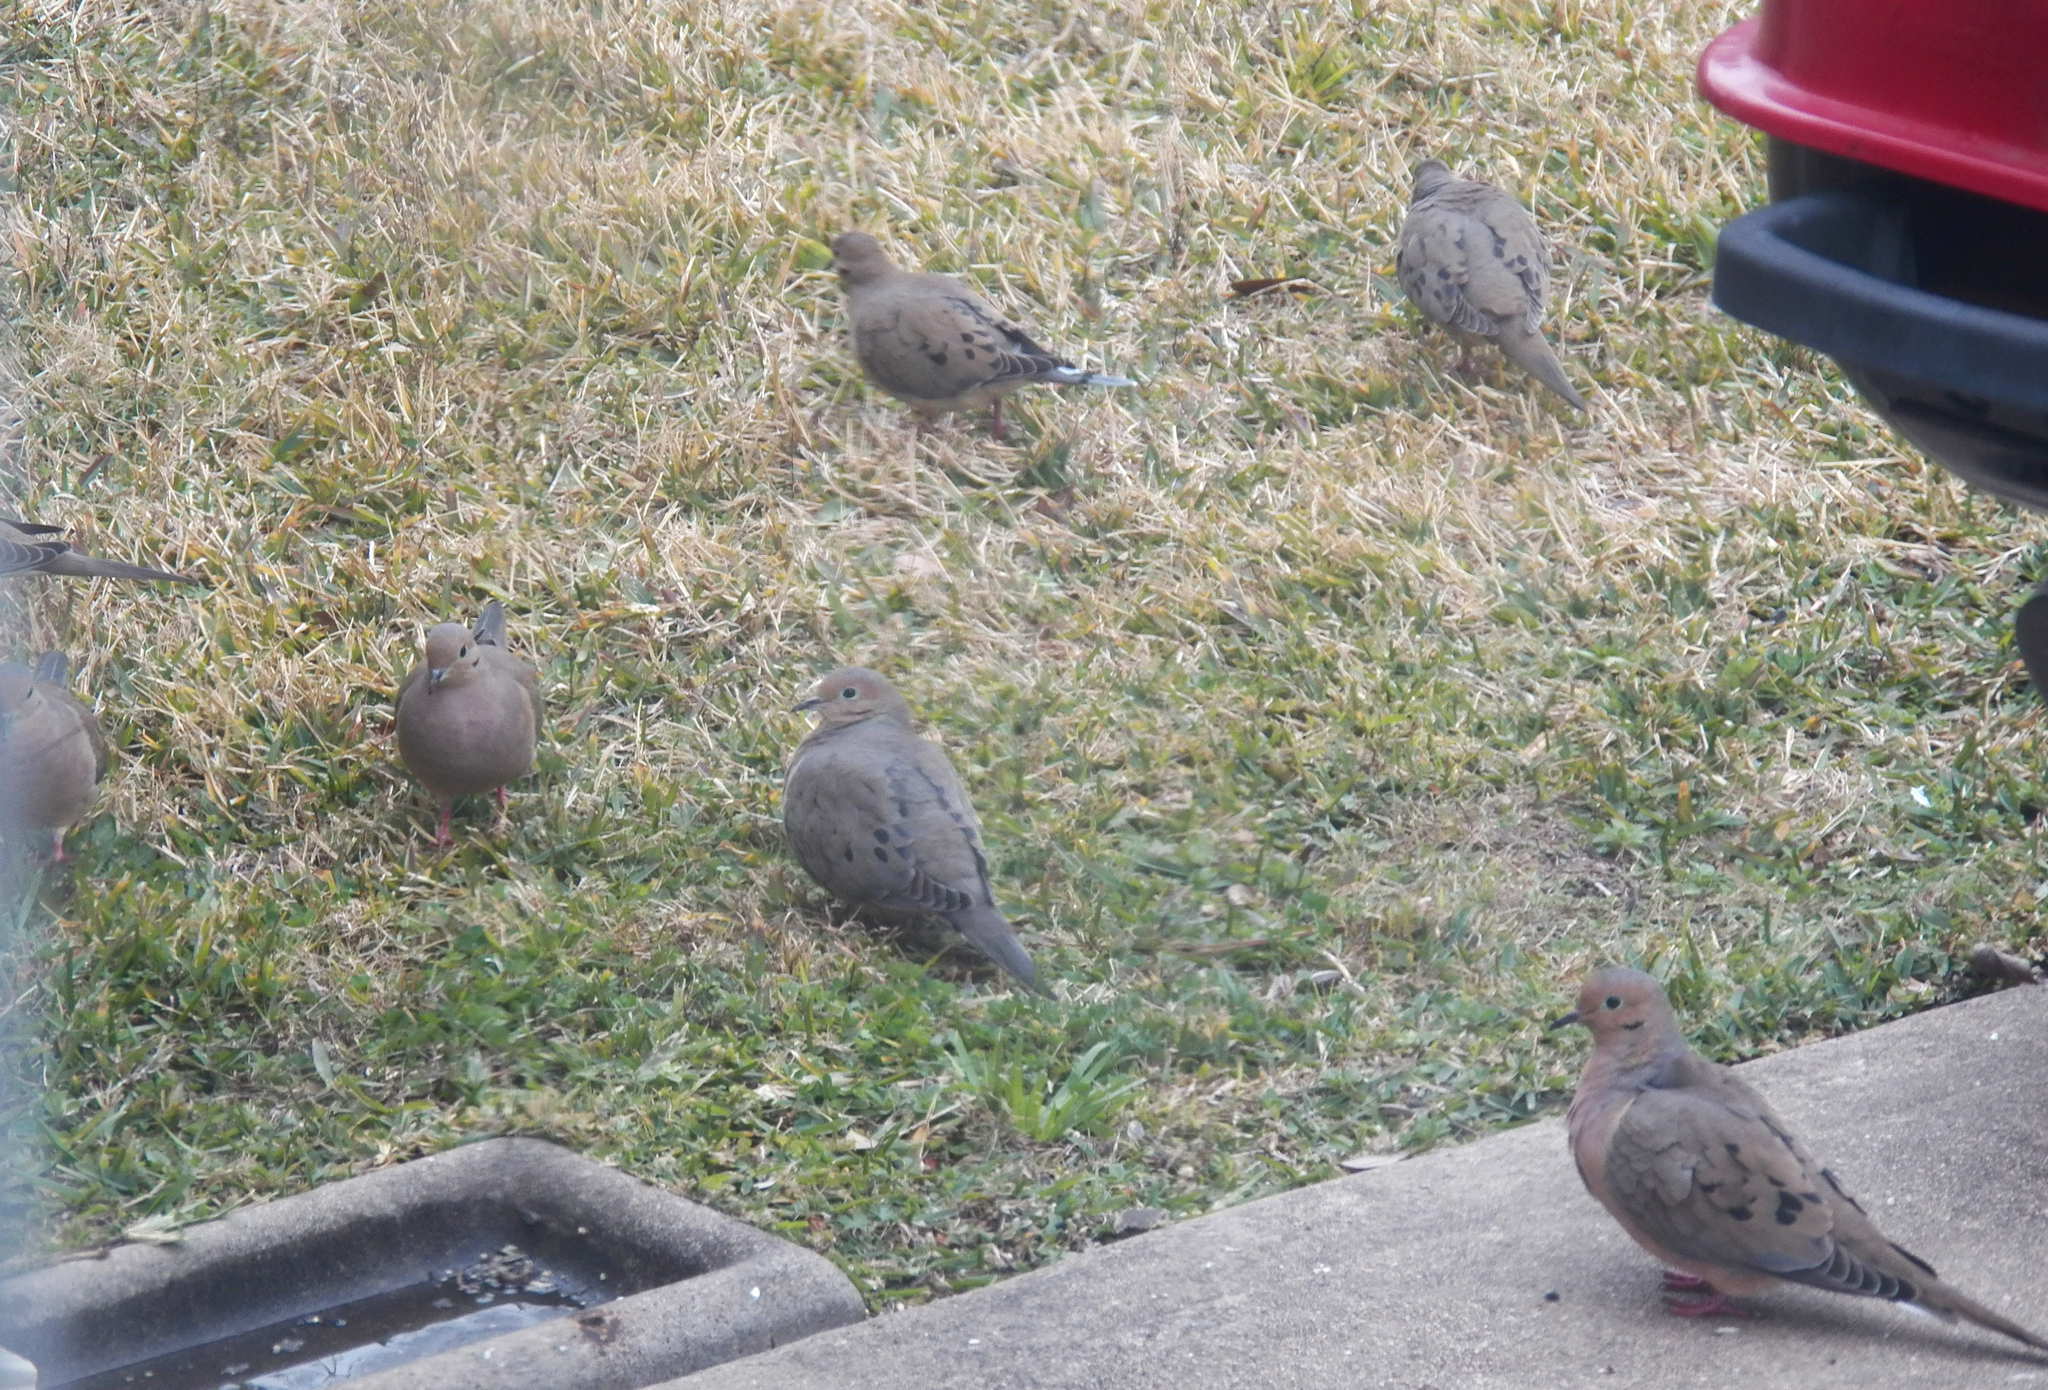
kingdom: Animalia
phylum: Chordata
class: Aves
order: Columbiformes
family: Columbidae
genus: Zenaida
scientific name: Zenaida macroura
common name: Mourning dove
